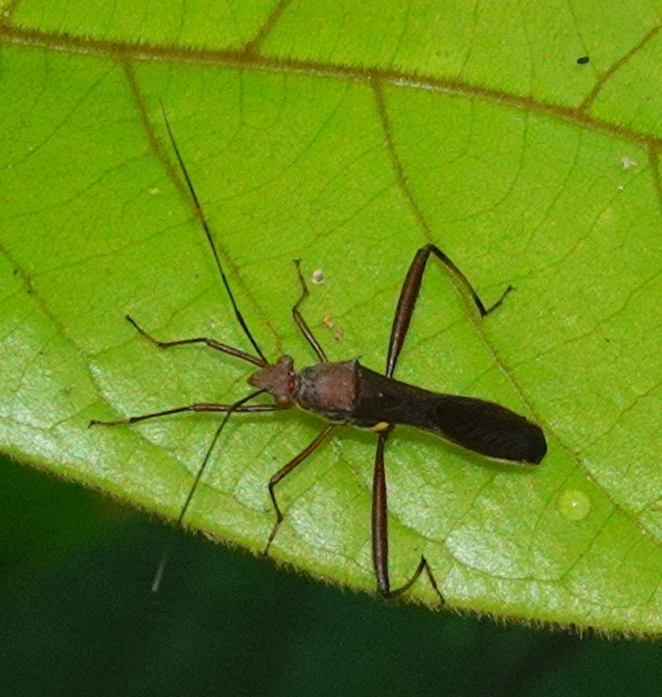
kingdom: Animalia
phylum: Arthropoda
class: Insecta
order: Hemiptera
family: Alydidae
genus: Riptortus
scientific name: Riptortus abdominalis
